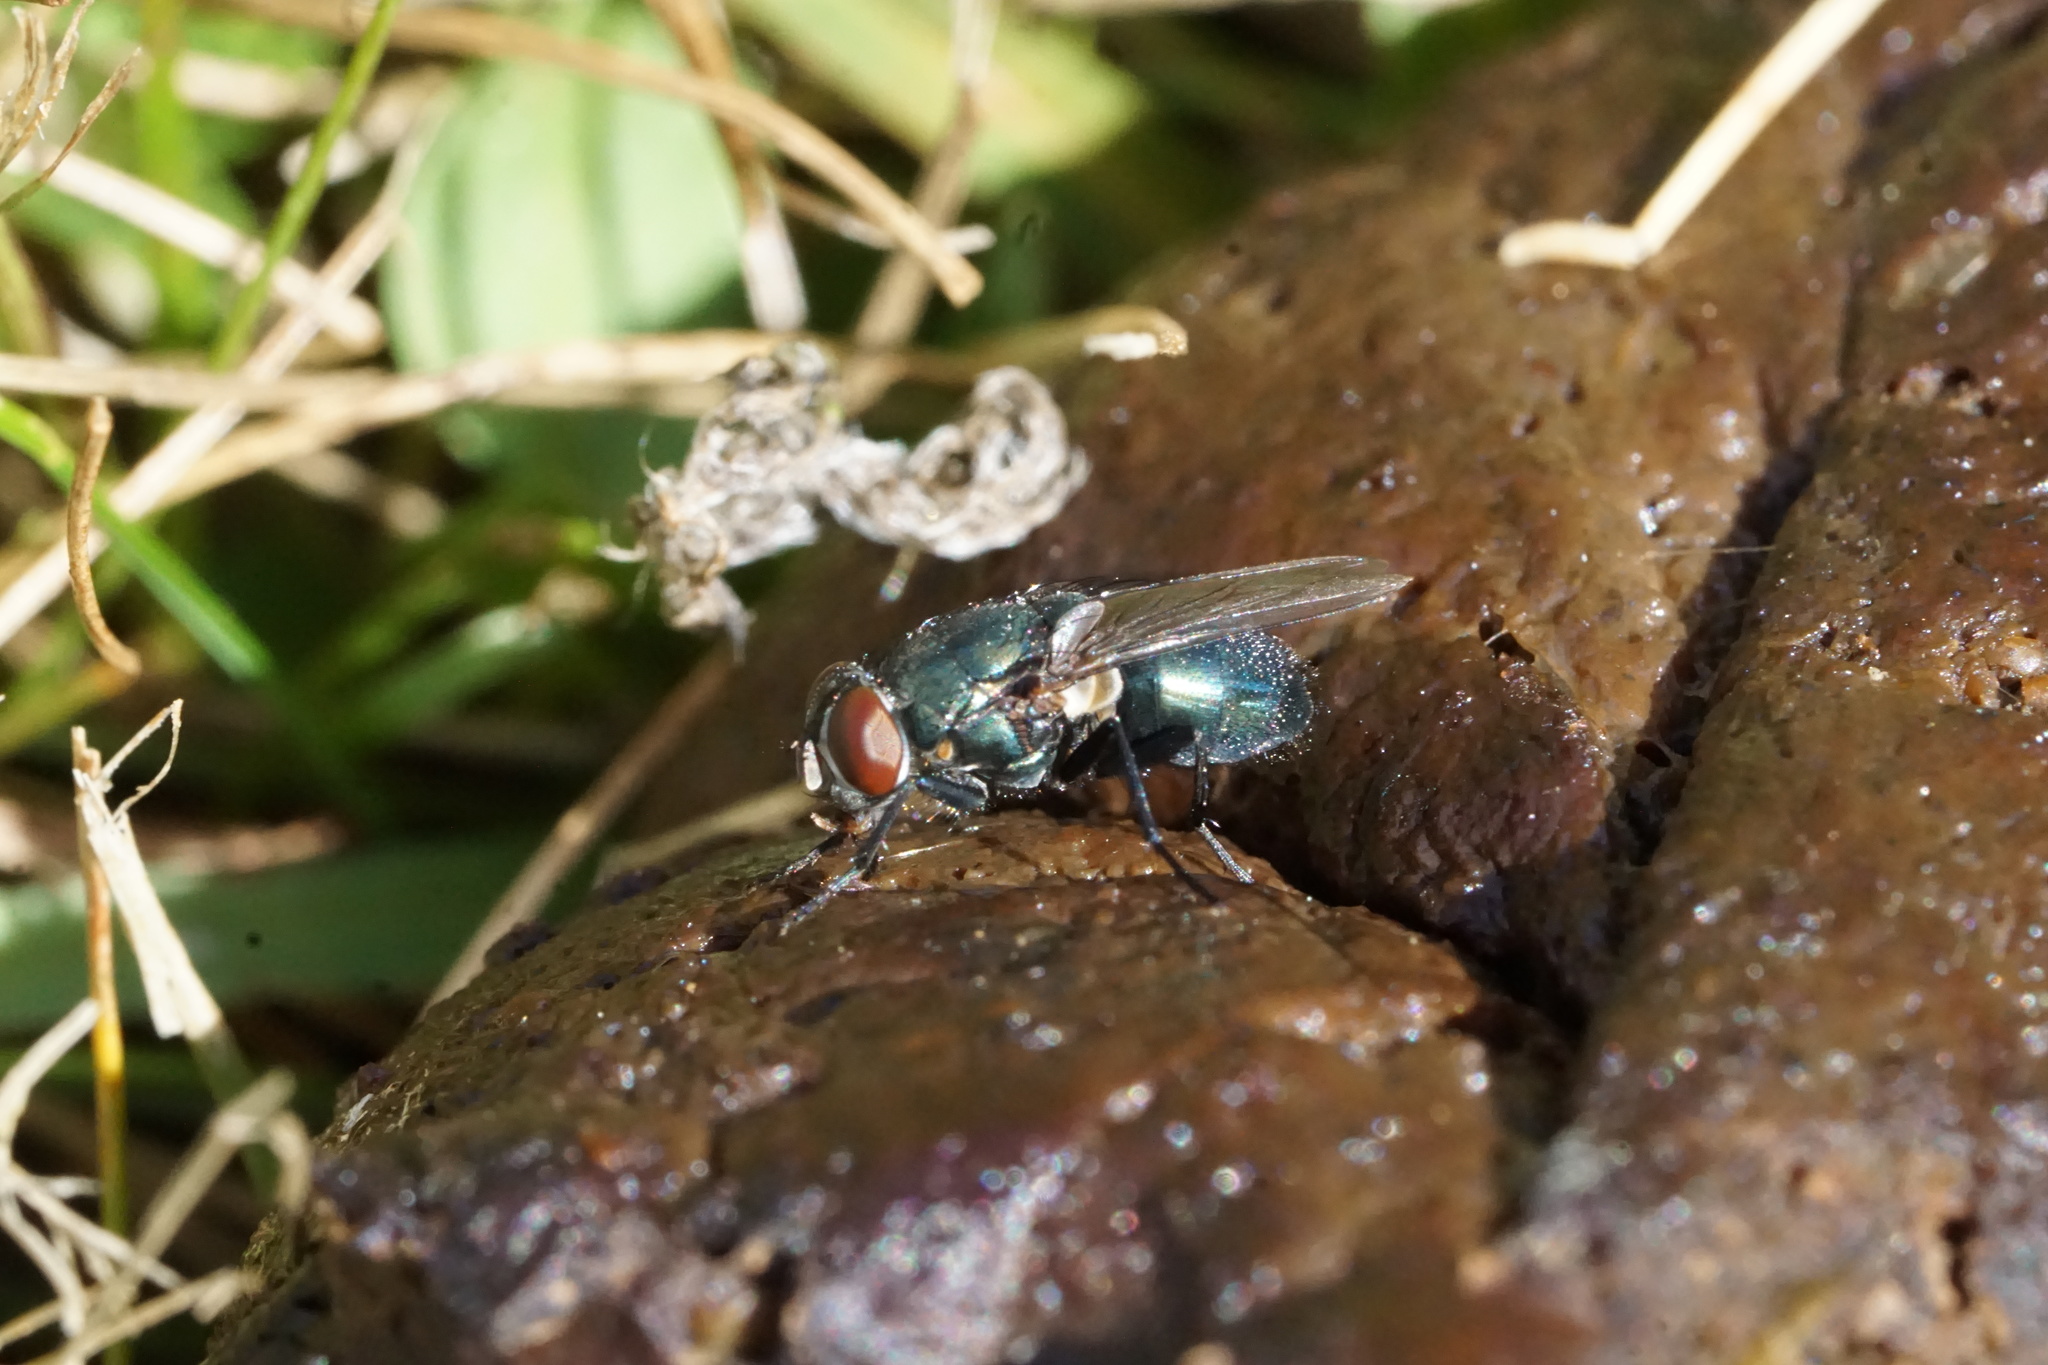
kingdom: Animalia
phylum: Arthropoda
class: Insecta
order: Diptera
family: Calliphoridae
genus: Phormia
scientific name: Phormia regina
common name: Black blow fly
